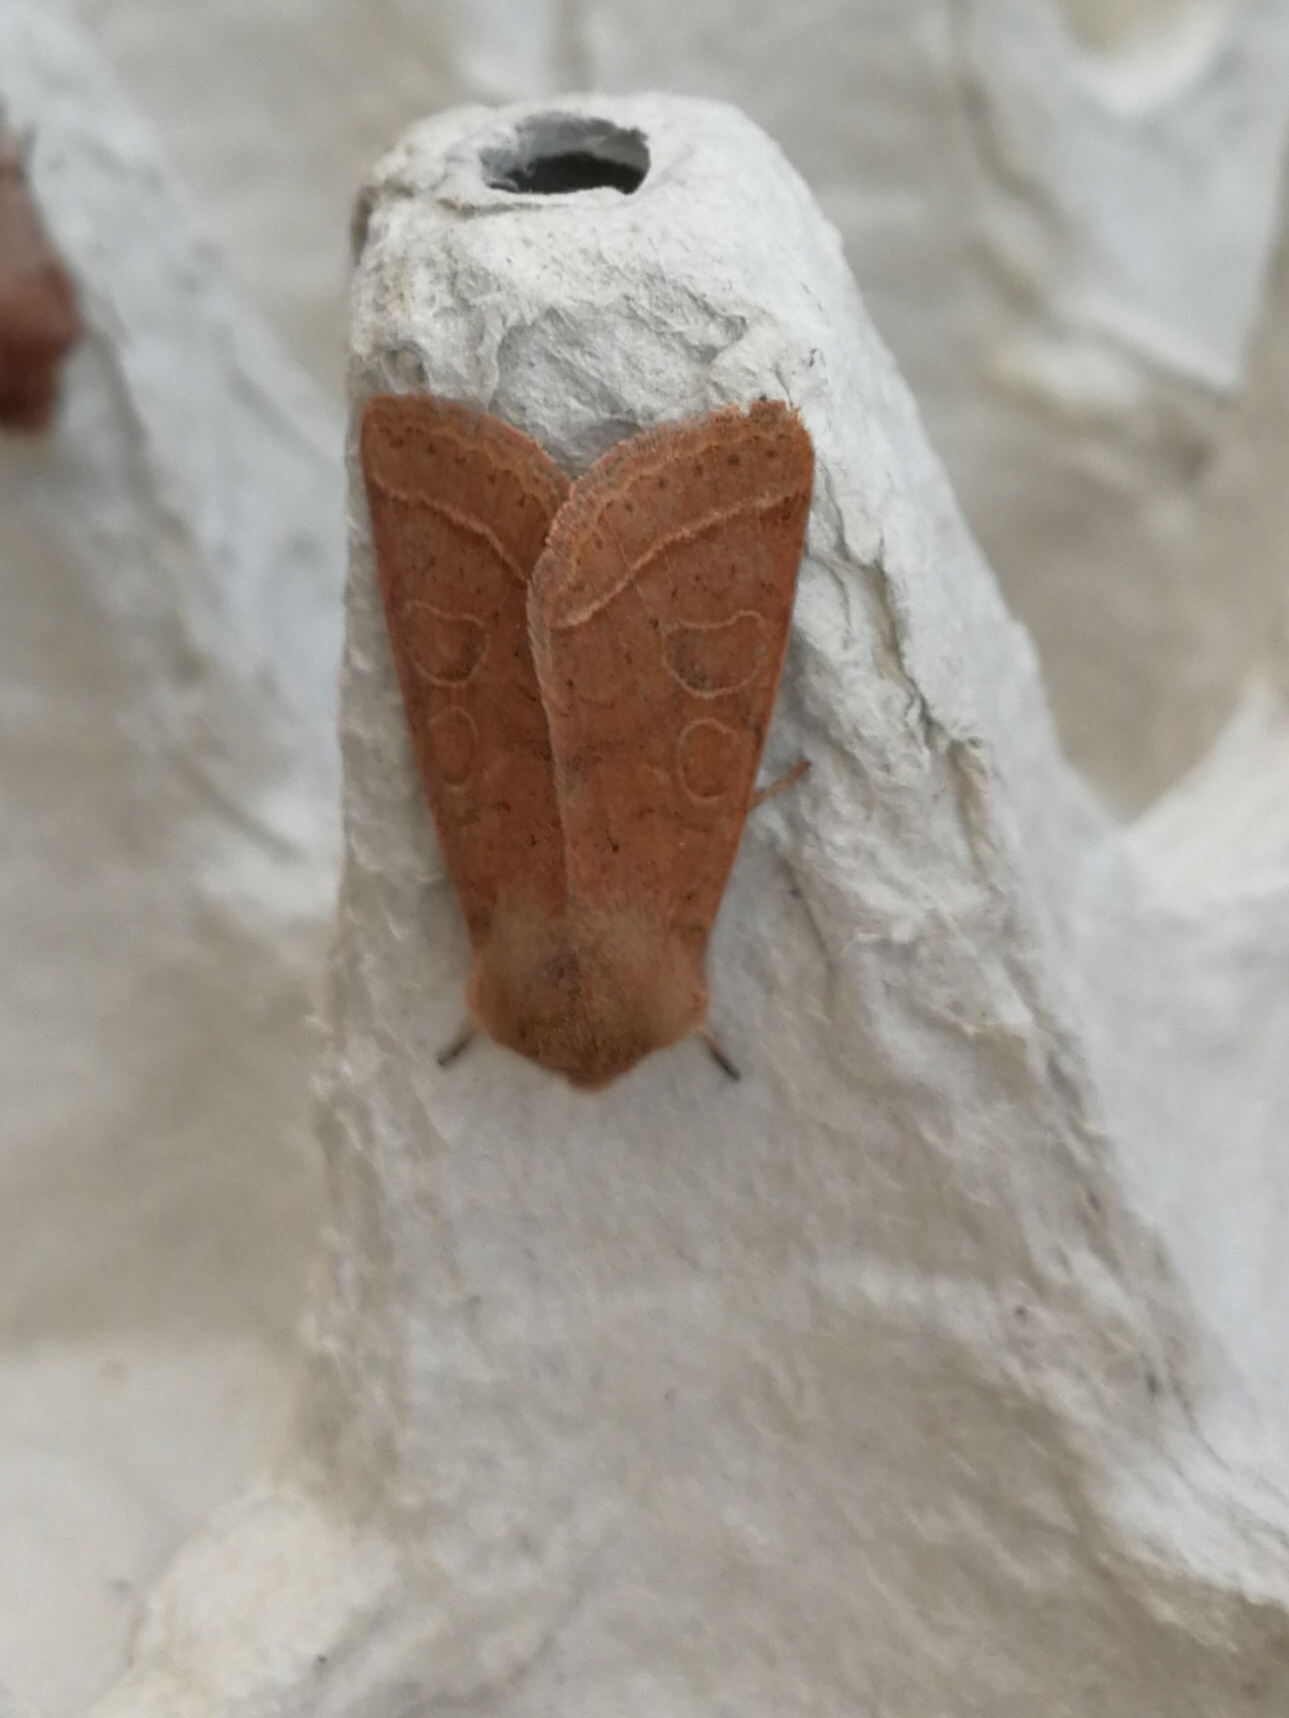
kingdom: Animalia
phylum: Arthropoda
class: Insecta
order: Lepidoptera
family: Noctuidae
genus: Orthosia
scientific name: Orthosia cerasi
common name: Common quaker
